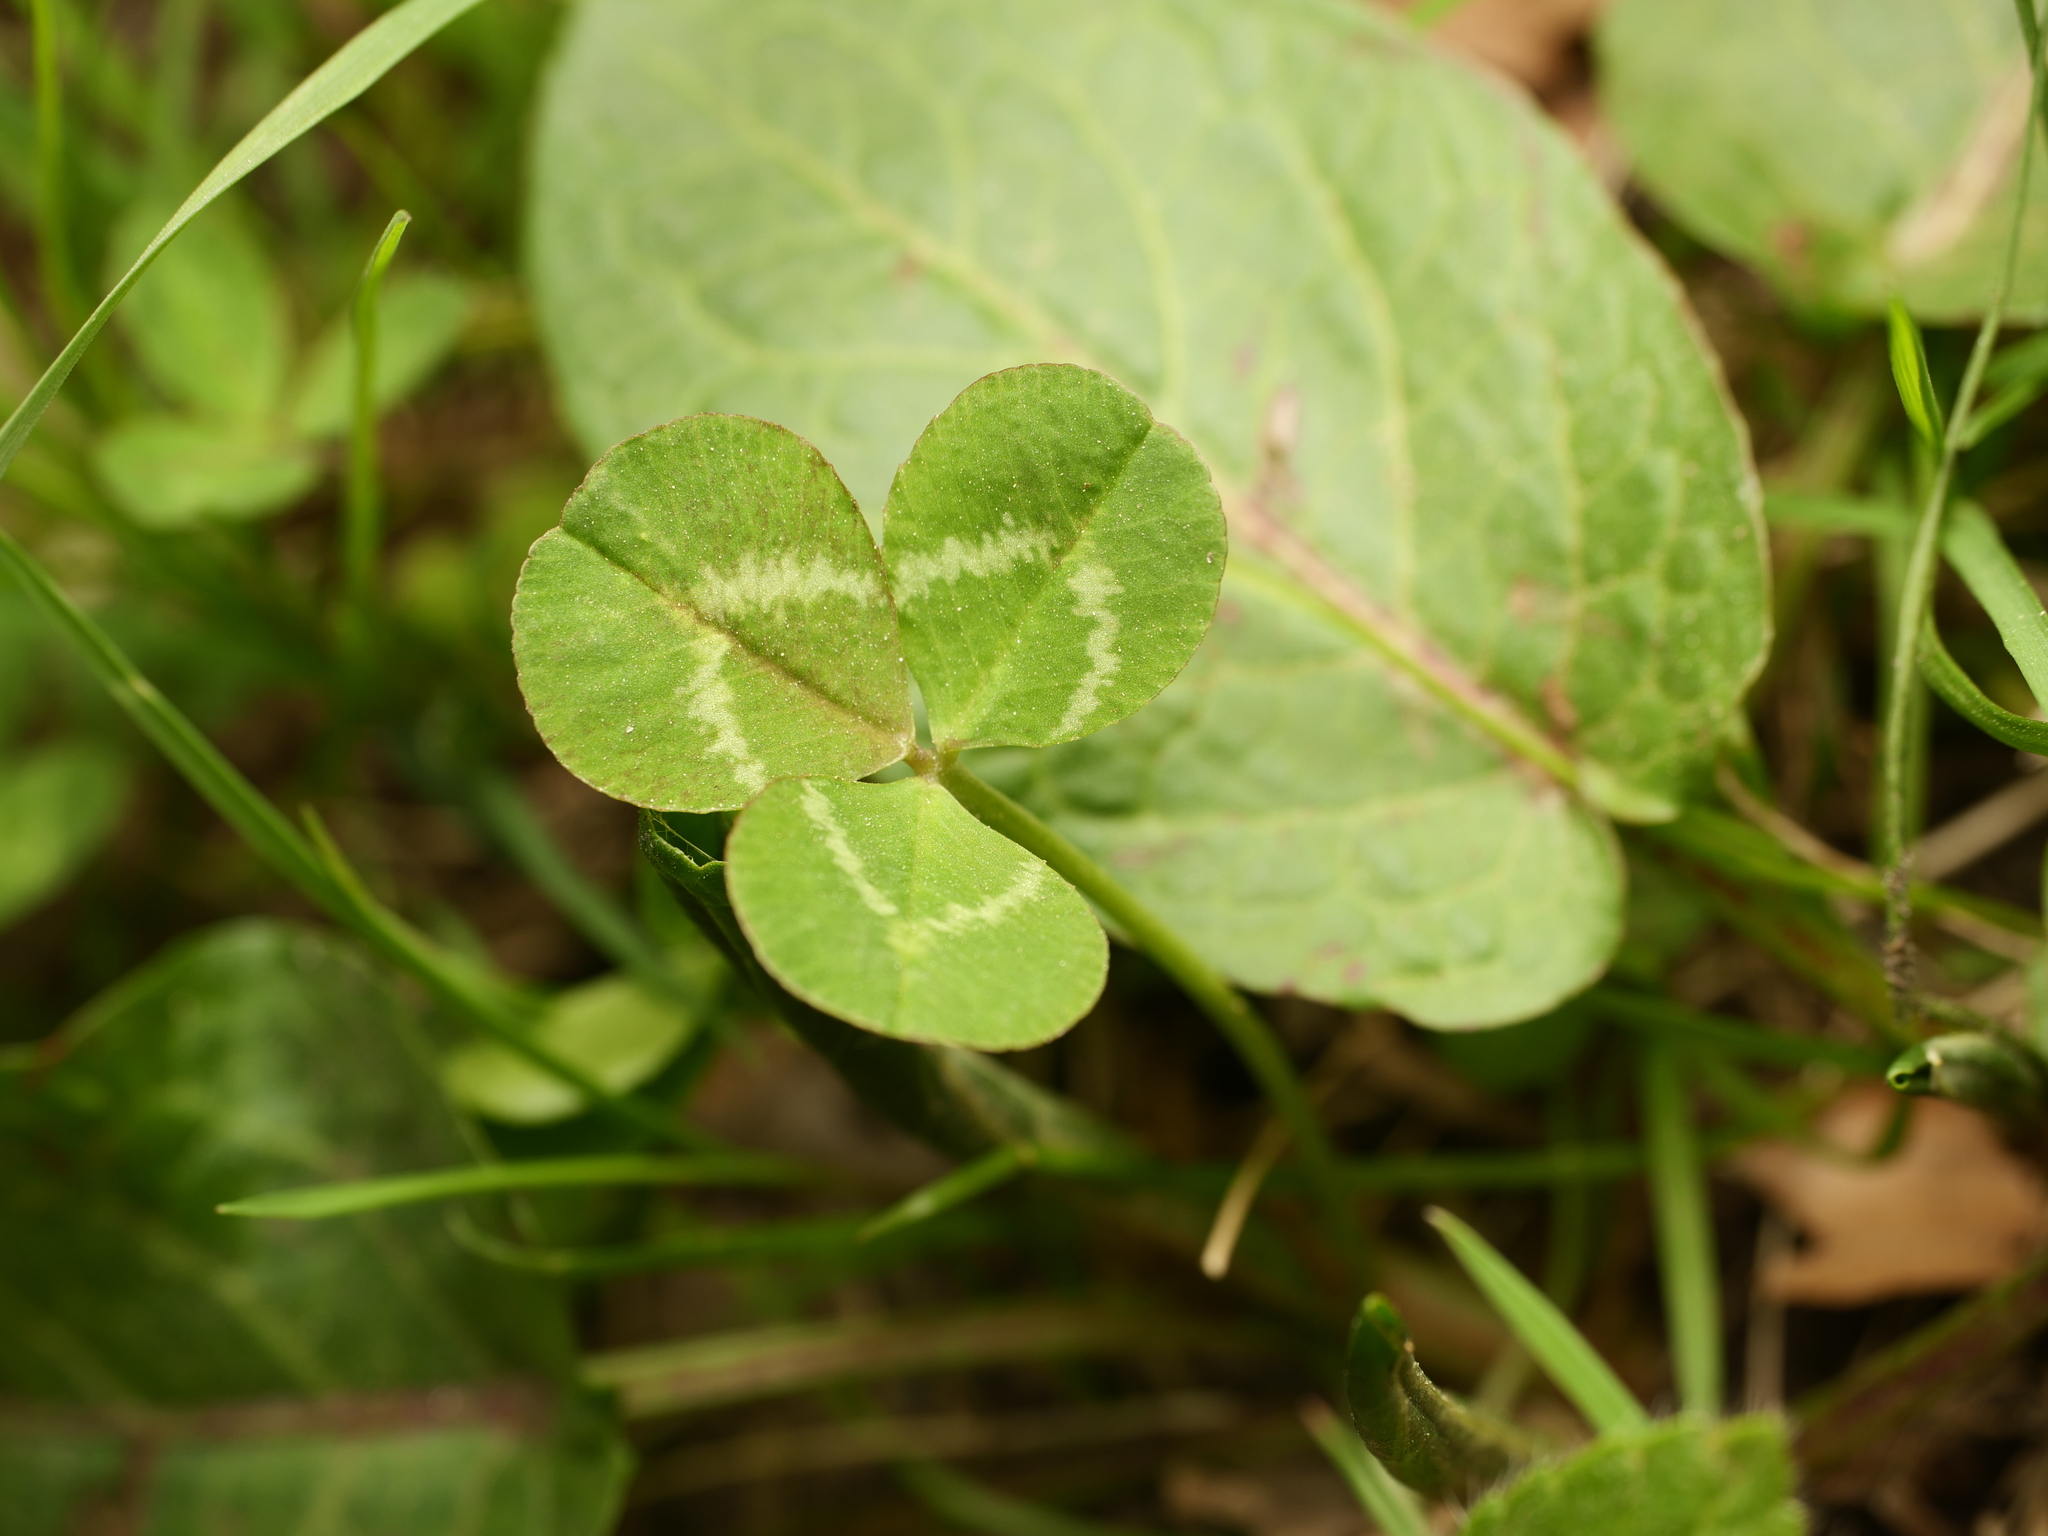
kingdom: Plantae
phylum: Tracheophyta
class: Magnoliopsida
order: Fabales
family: Fabaceae
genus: Trifolium
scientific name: Trifolium repens
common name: White clover
